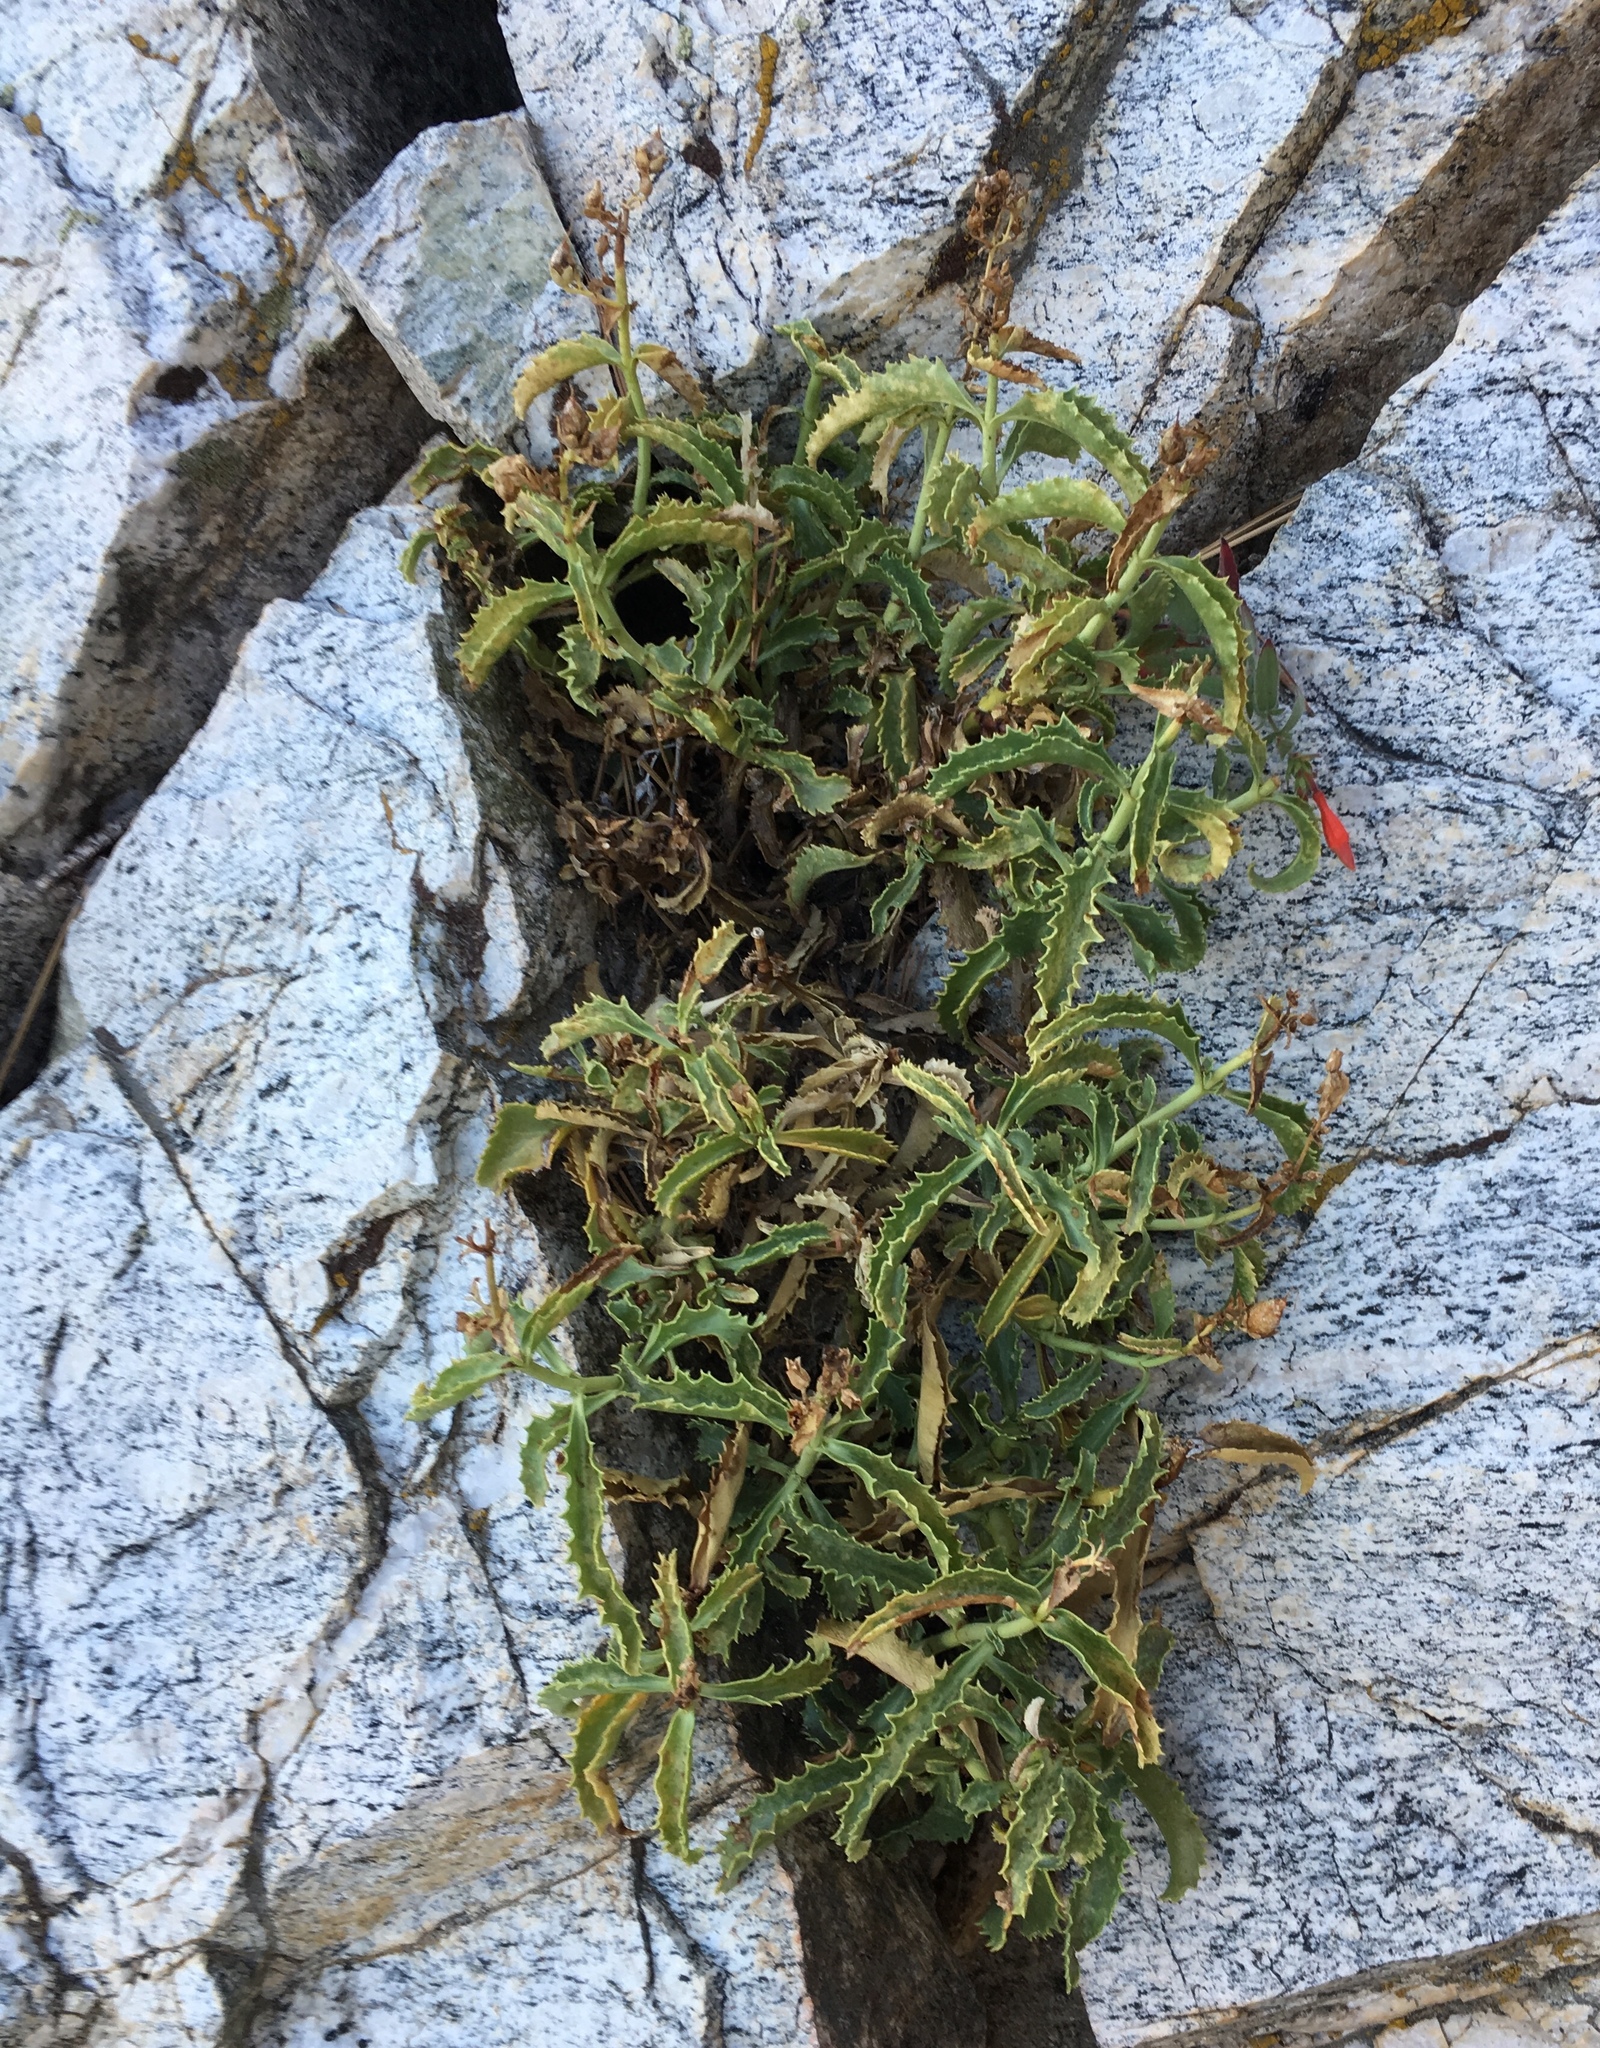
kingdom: Plantae
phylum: Tracheophyta
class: Magnoliopsida
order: Lamiales
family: Plantaginaceae
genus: Penstemon
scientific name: Penstemon grinnellii
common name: Grinnell's beardtongue
